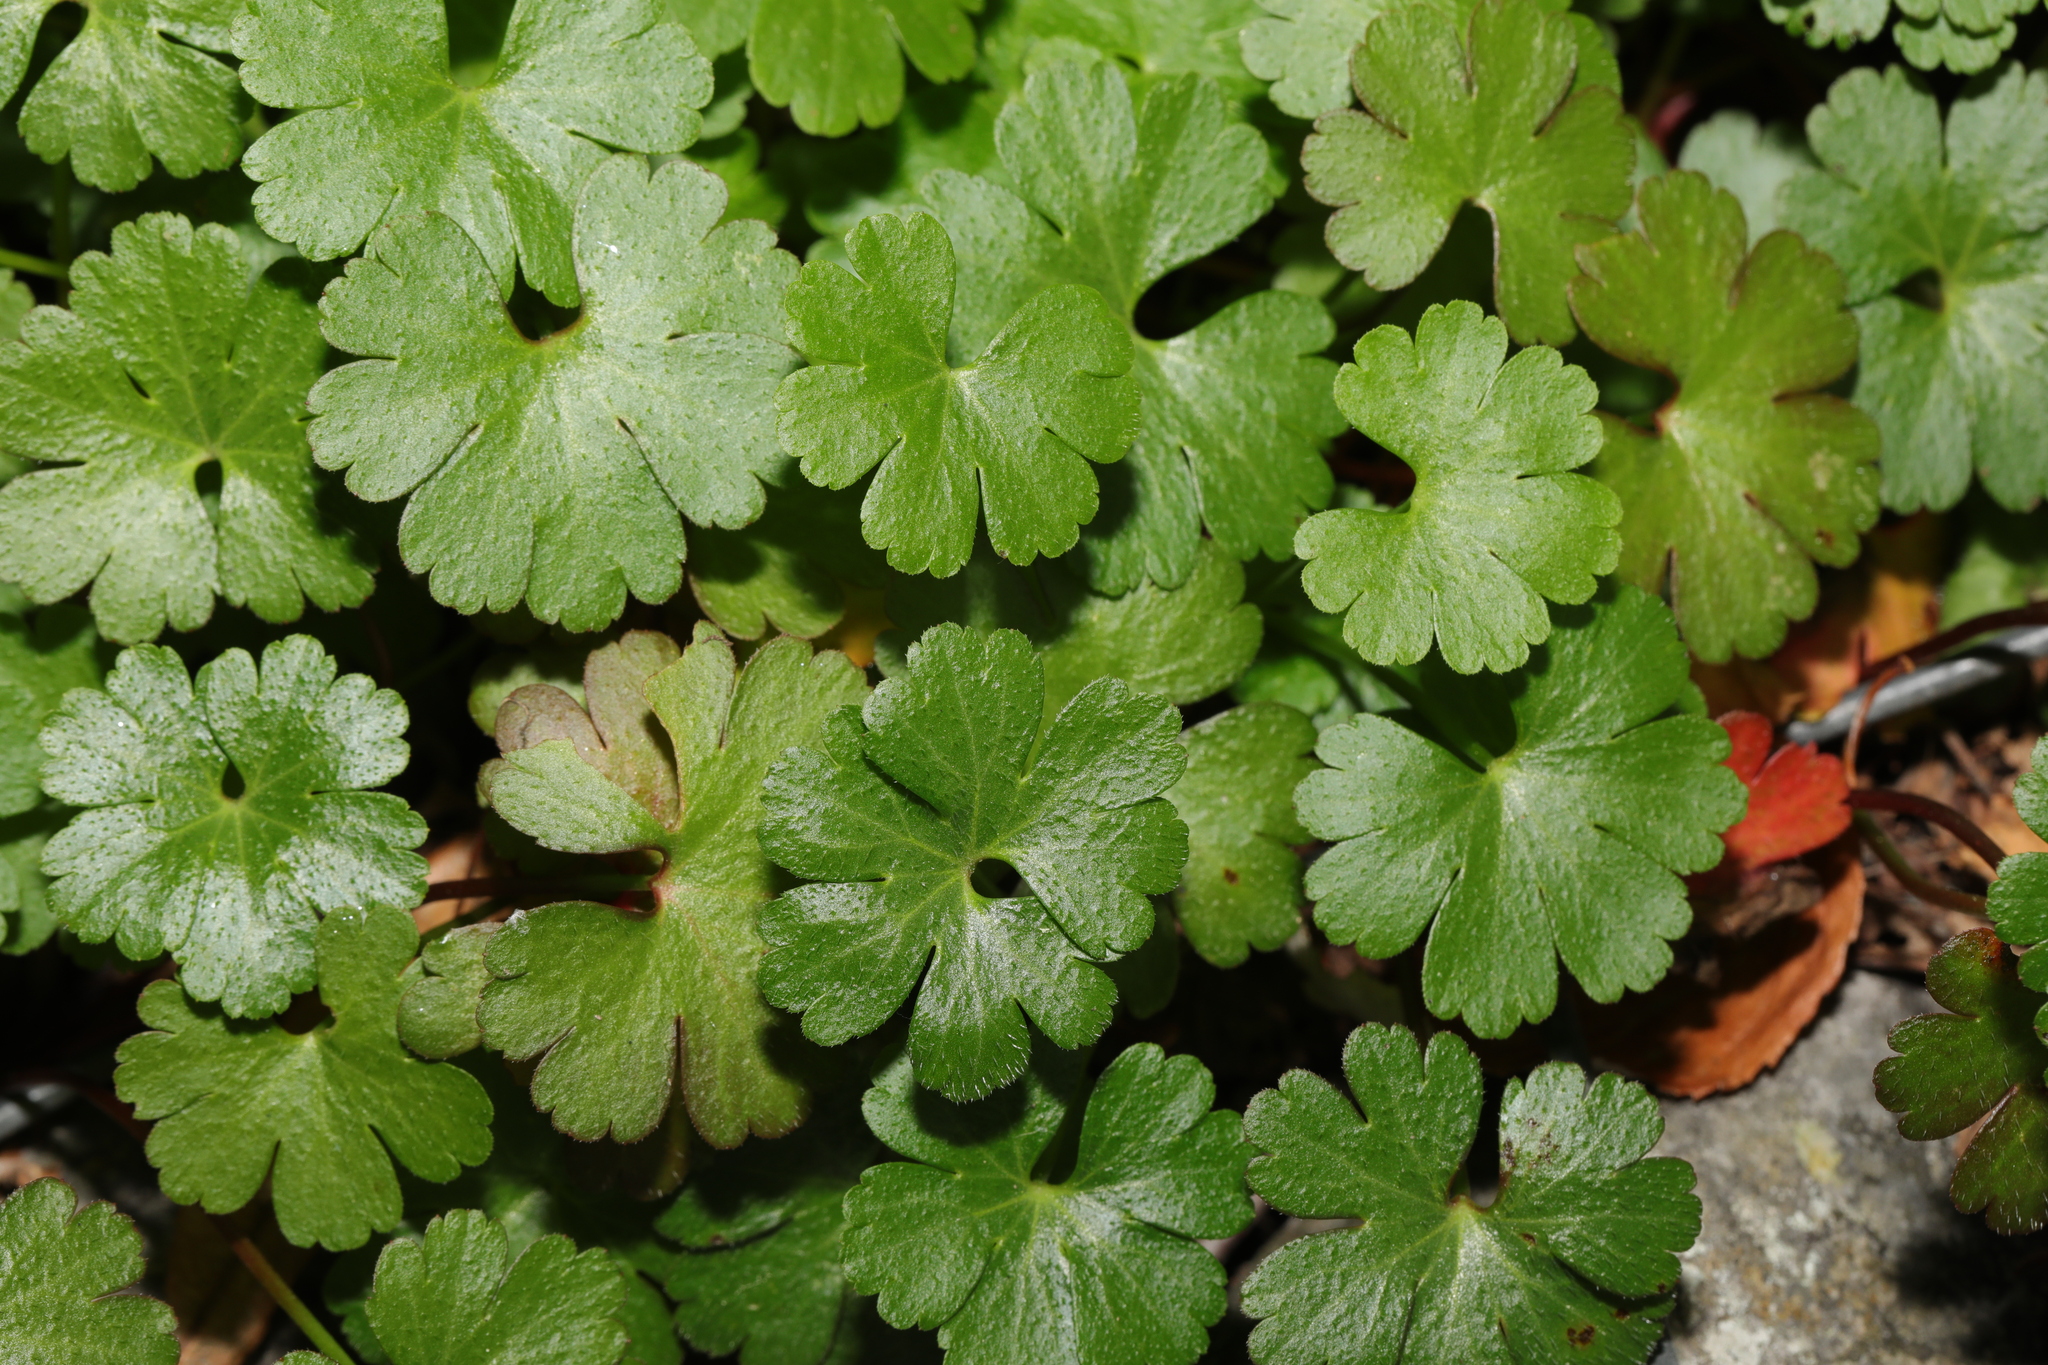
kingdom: Plantae
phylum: Tracheophyta
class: Magnoliopsida
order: Geraniales
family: Geraniaceae
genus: Geranium
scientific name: Geranium lucidum
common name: Shining crane's-bill
